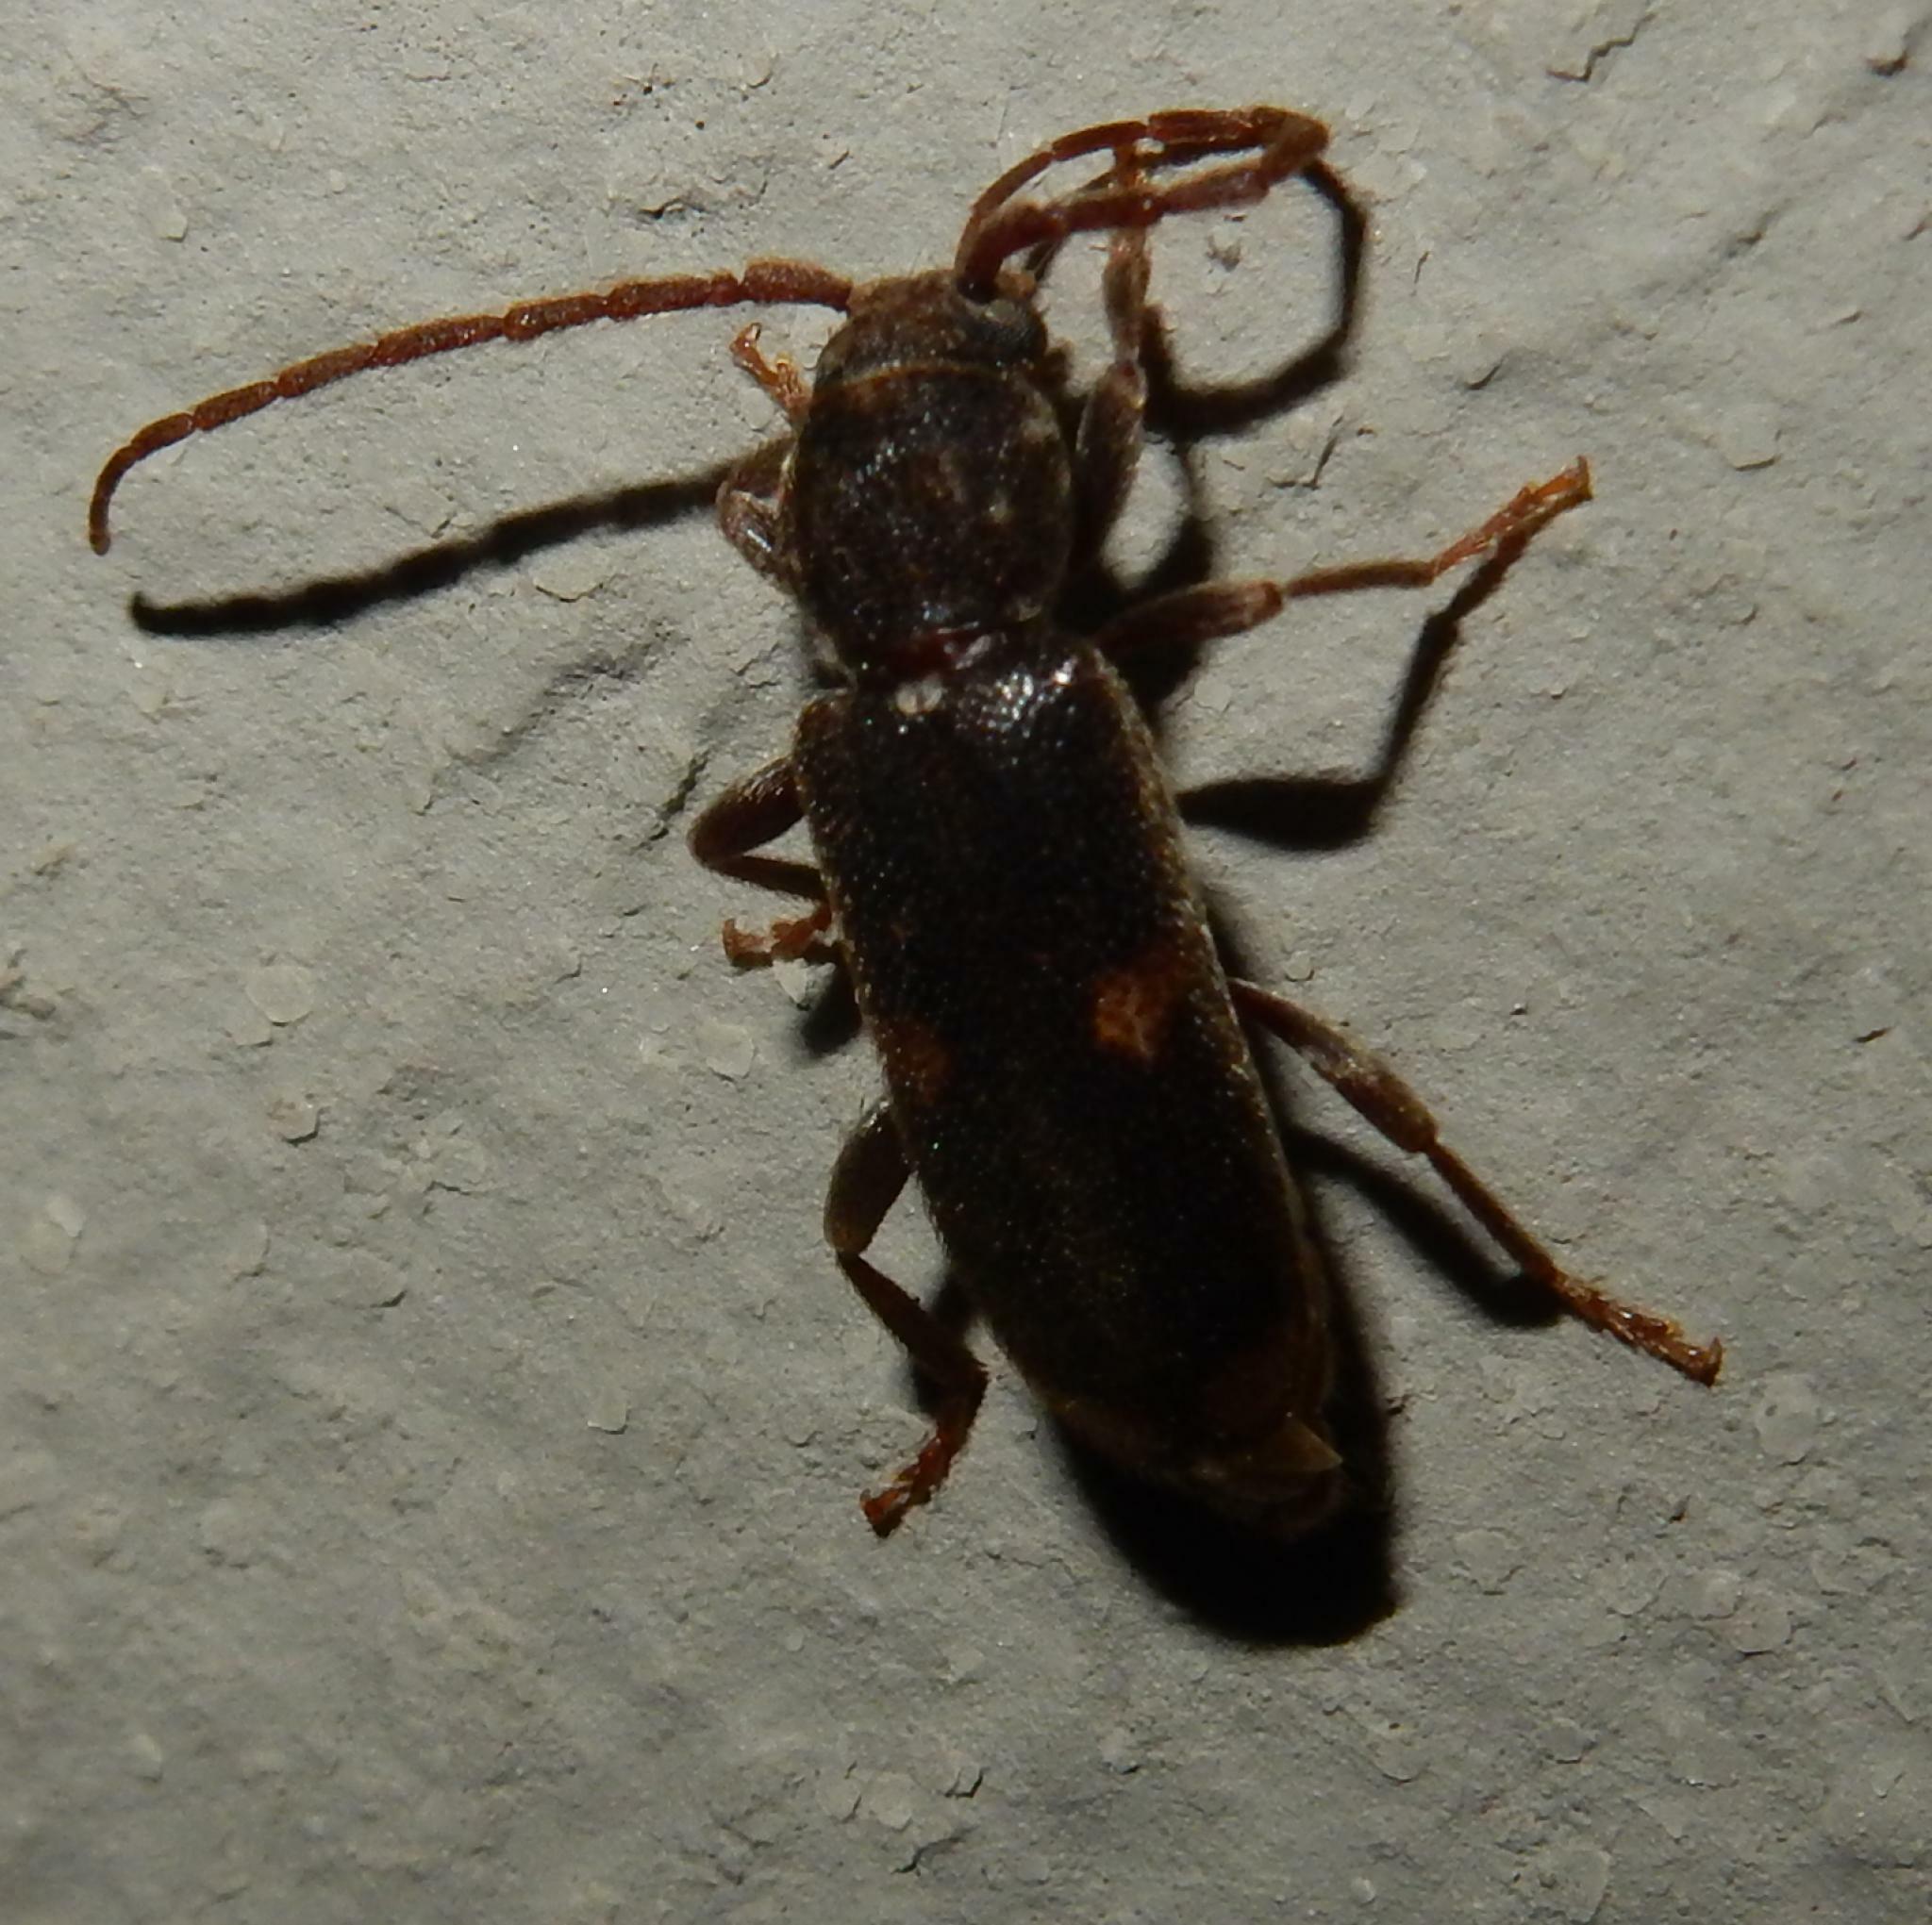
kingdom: Animalia
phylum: Arthropoda
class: Insecta
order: Coleoptera
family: Cerambycidae
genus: Zamium
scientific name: Zamium bimaculatum
